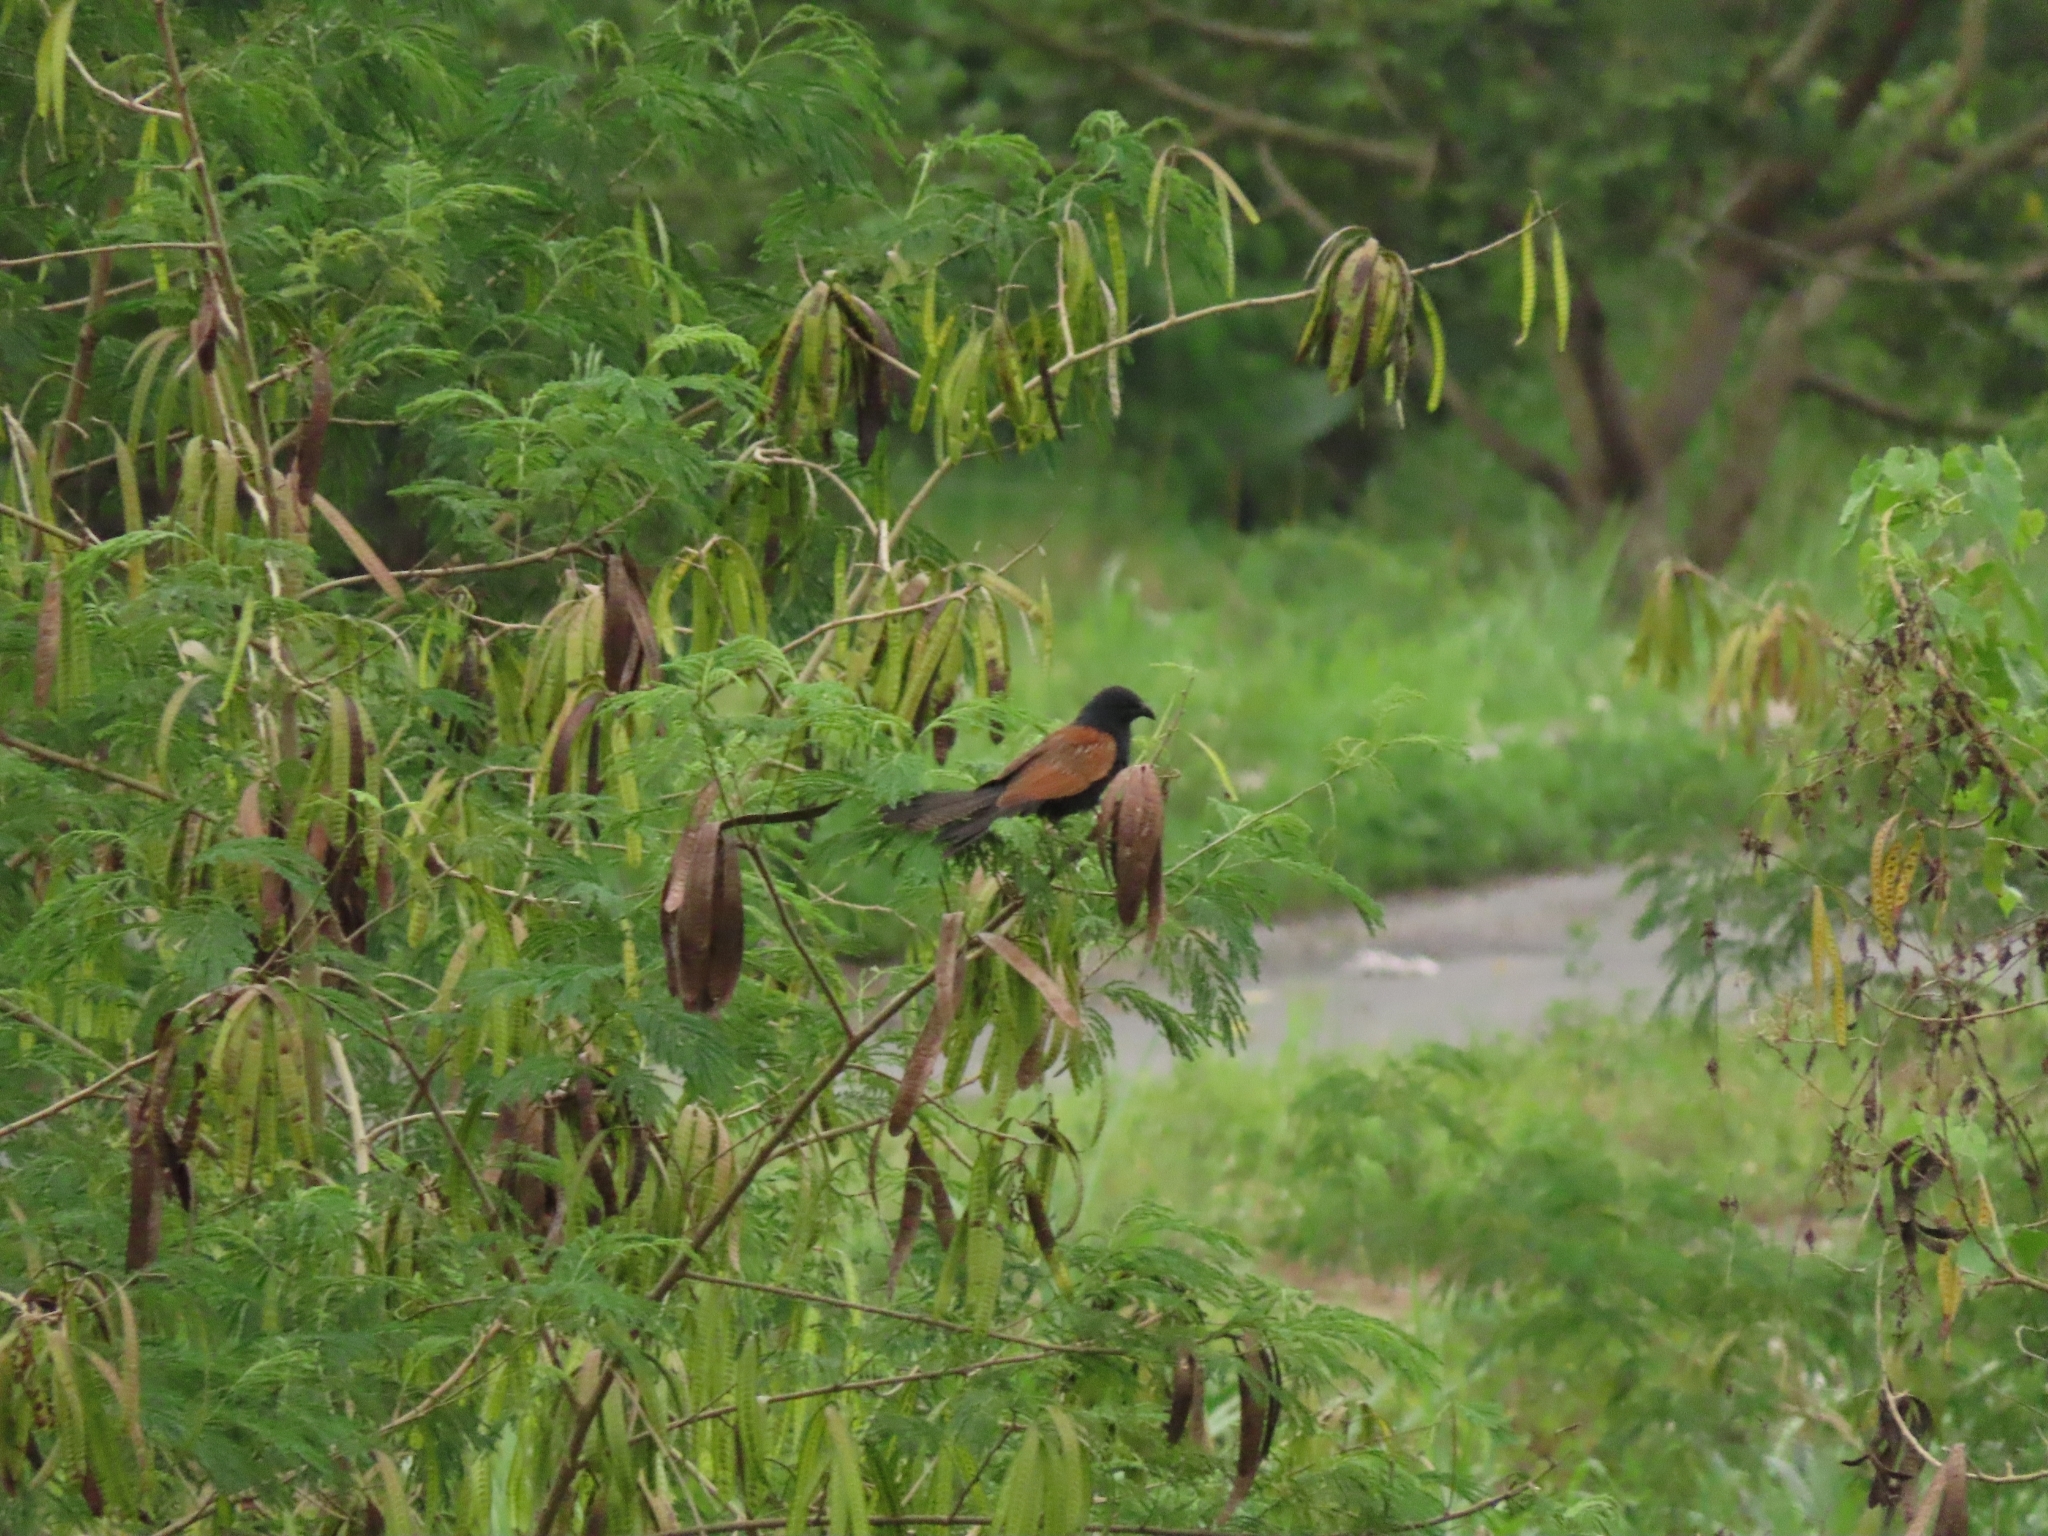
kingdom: Animalia
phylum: Chordata
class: Aves
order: Cuculiformes
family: Cuculidae
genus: Centropus
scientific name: Centropus bengalensis
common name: Lesser coucal
